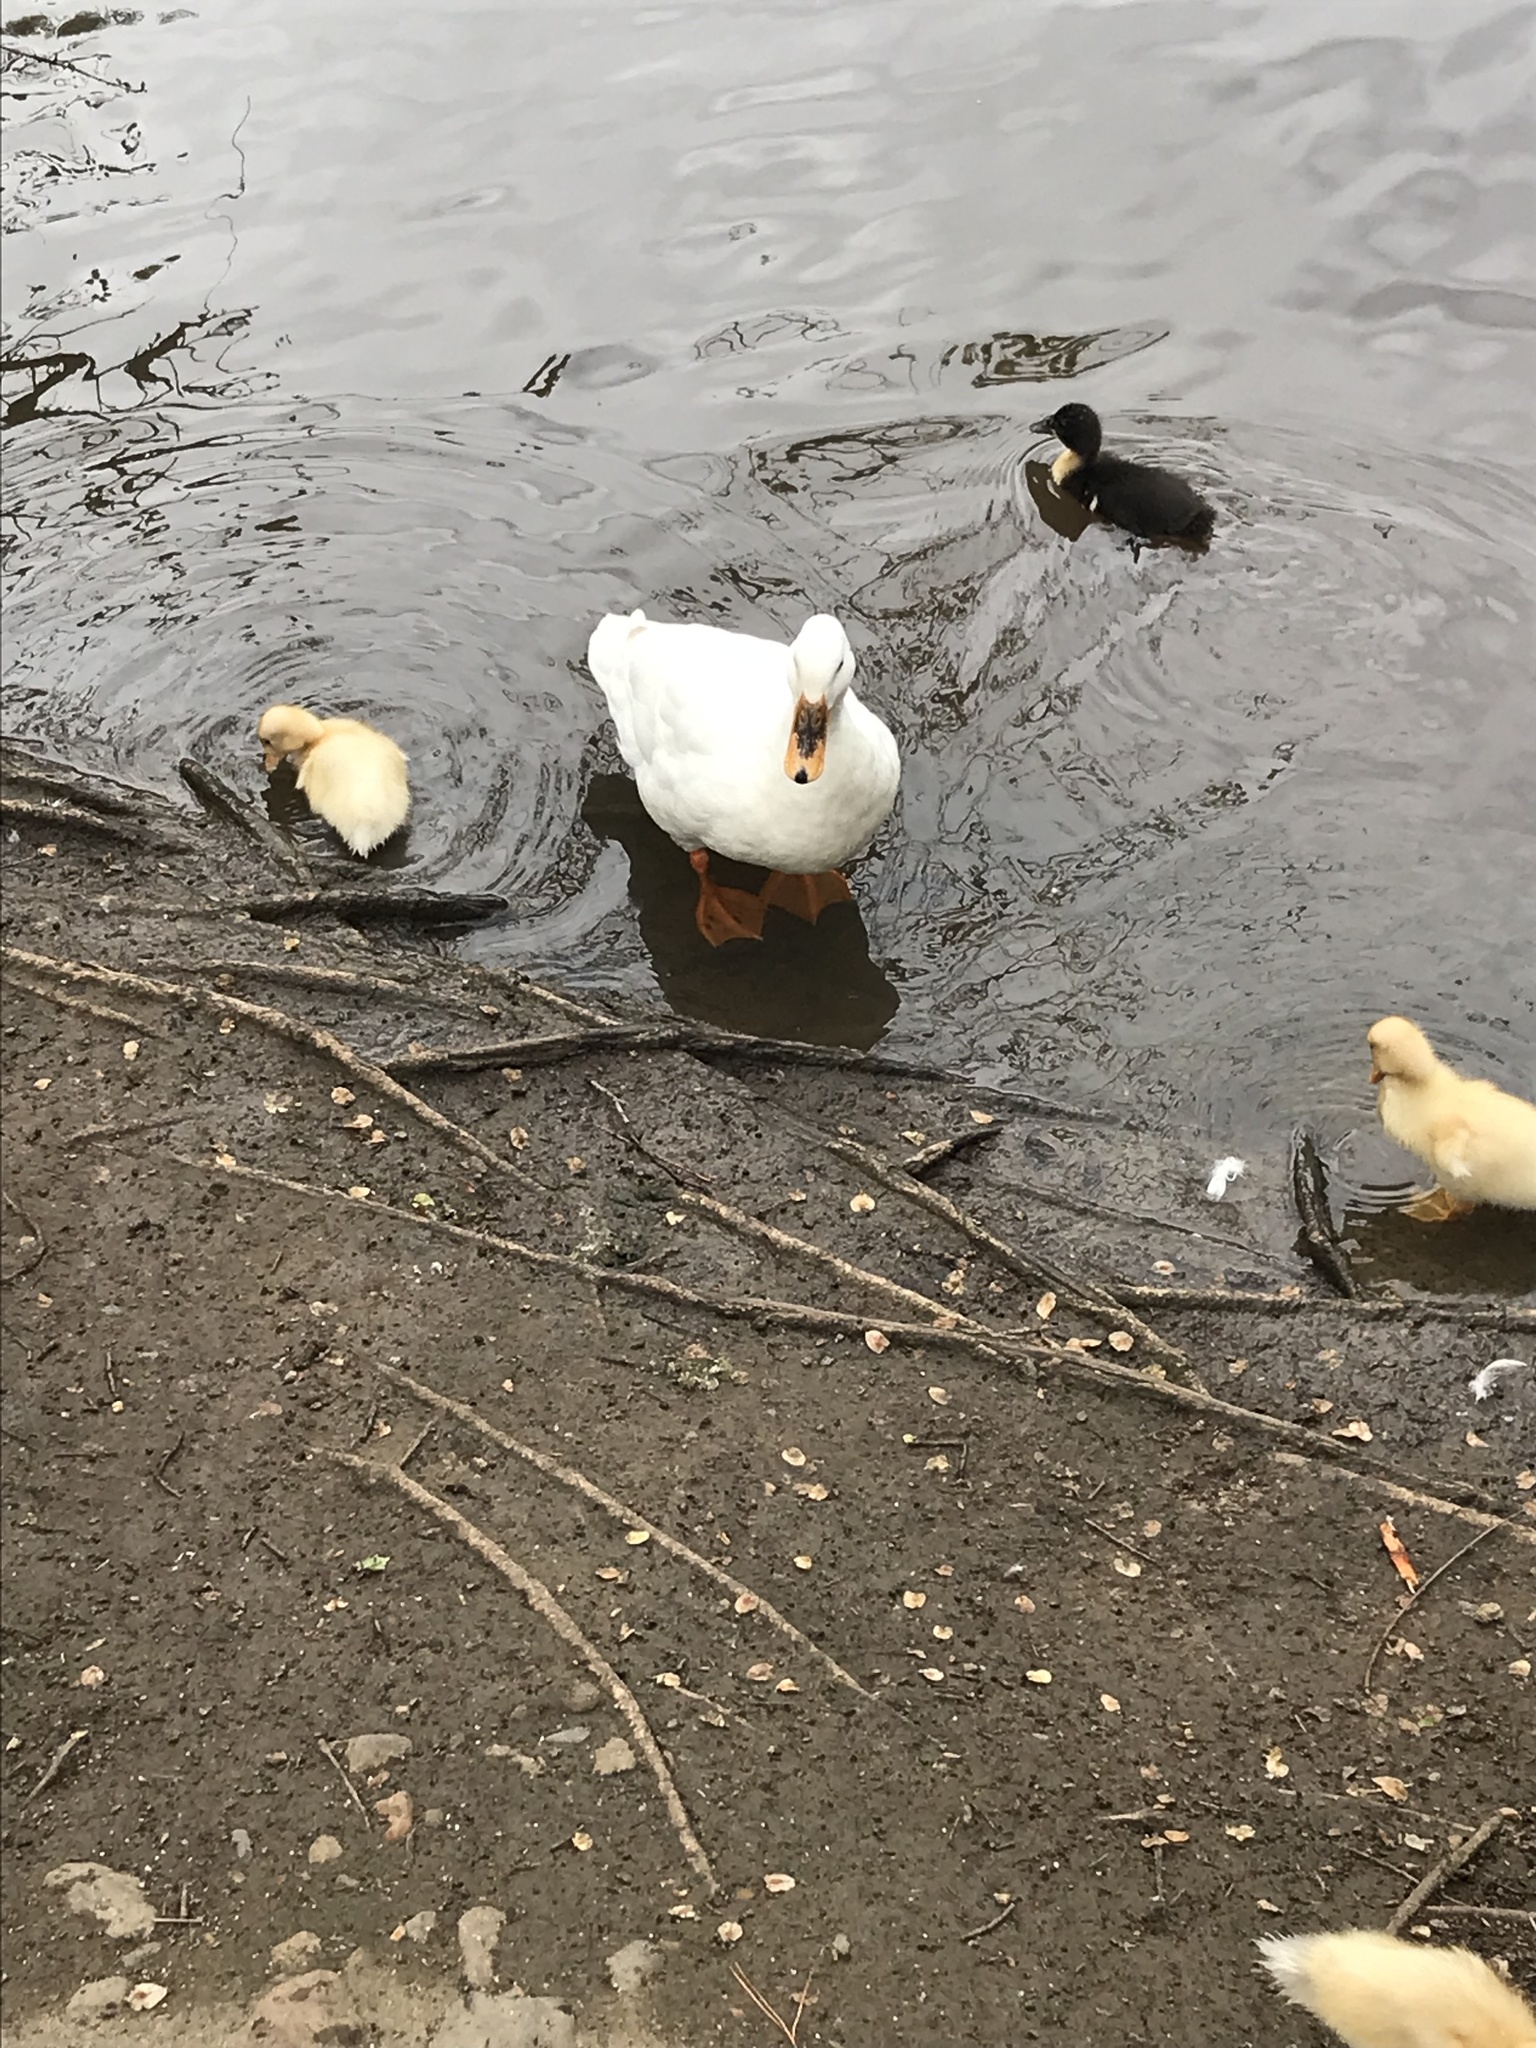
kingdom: Animalia
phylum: Chordata
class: Aves
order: Anseriformes
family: Anatidae
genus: Anas
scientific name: Anas platyrhynchos
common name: Mallard
